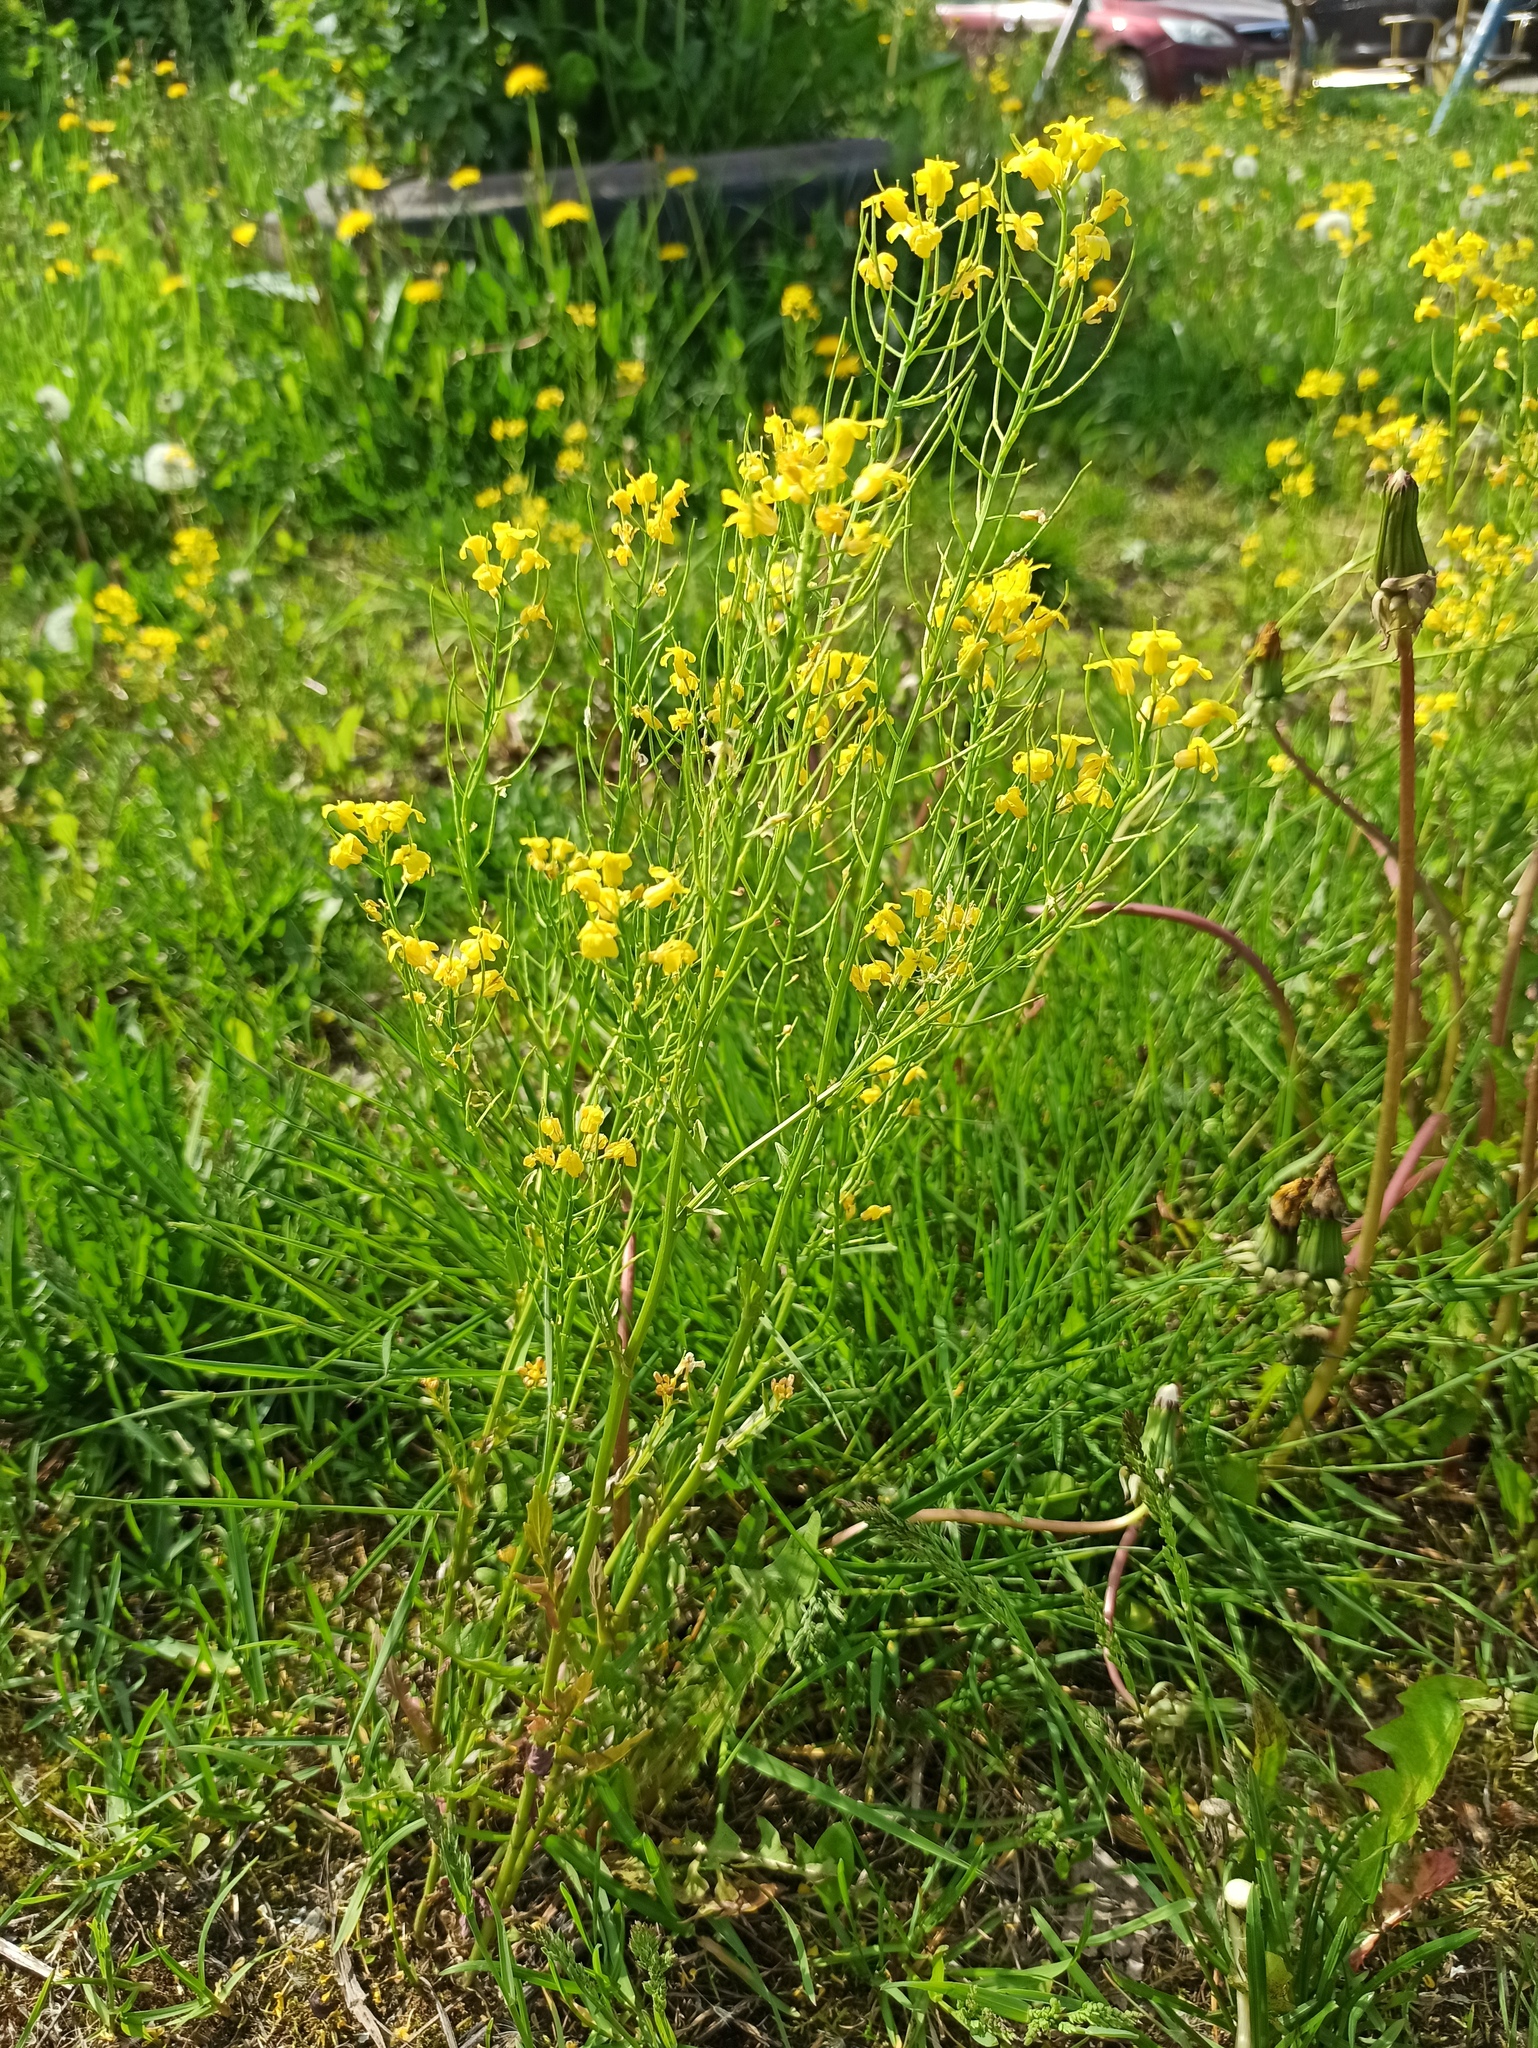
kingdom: Plantae
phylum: Tracheophyta
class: Magnoliopsida
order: Brassicales
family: Brassicaceae
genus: Barbarea
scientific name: Barbarea vulgaris
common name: Cressy-greens
